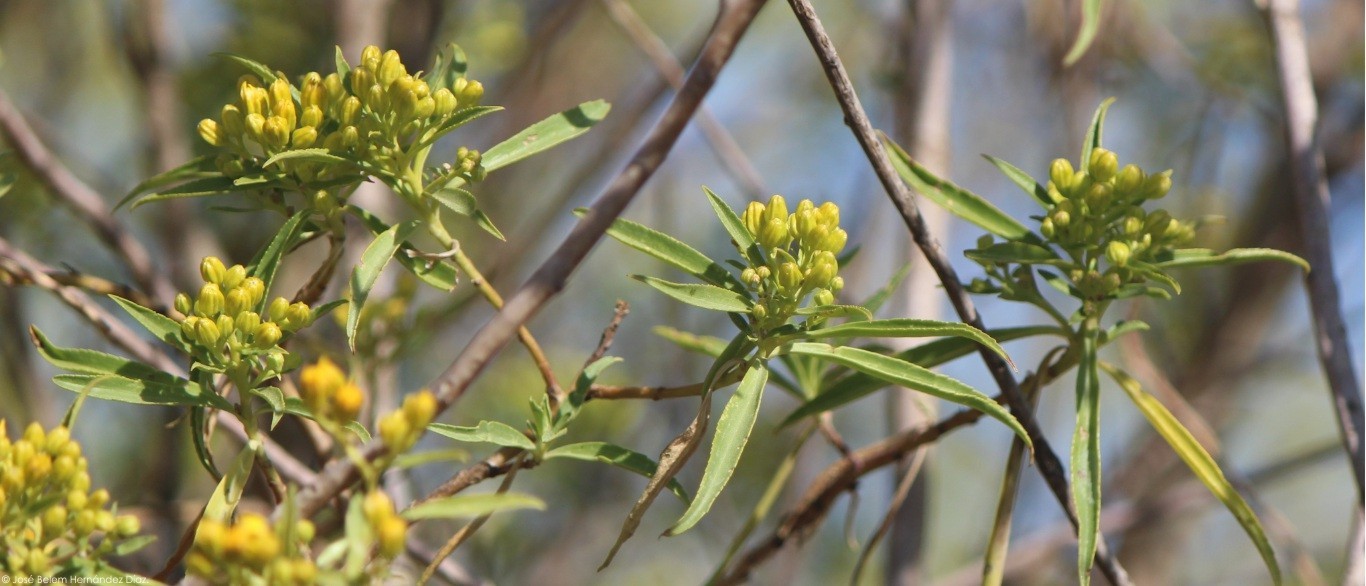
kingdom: Plantae
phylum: Tracheophyta
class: Magnoliopsida
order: Asterales
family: Asteraceae
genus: Barkleyanthus
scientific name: Barkleyanthus salicifolius
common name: Willow ragwort
